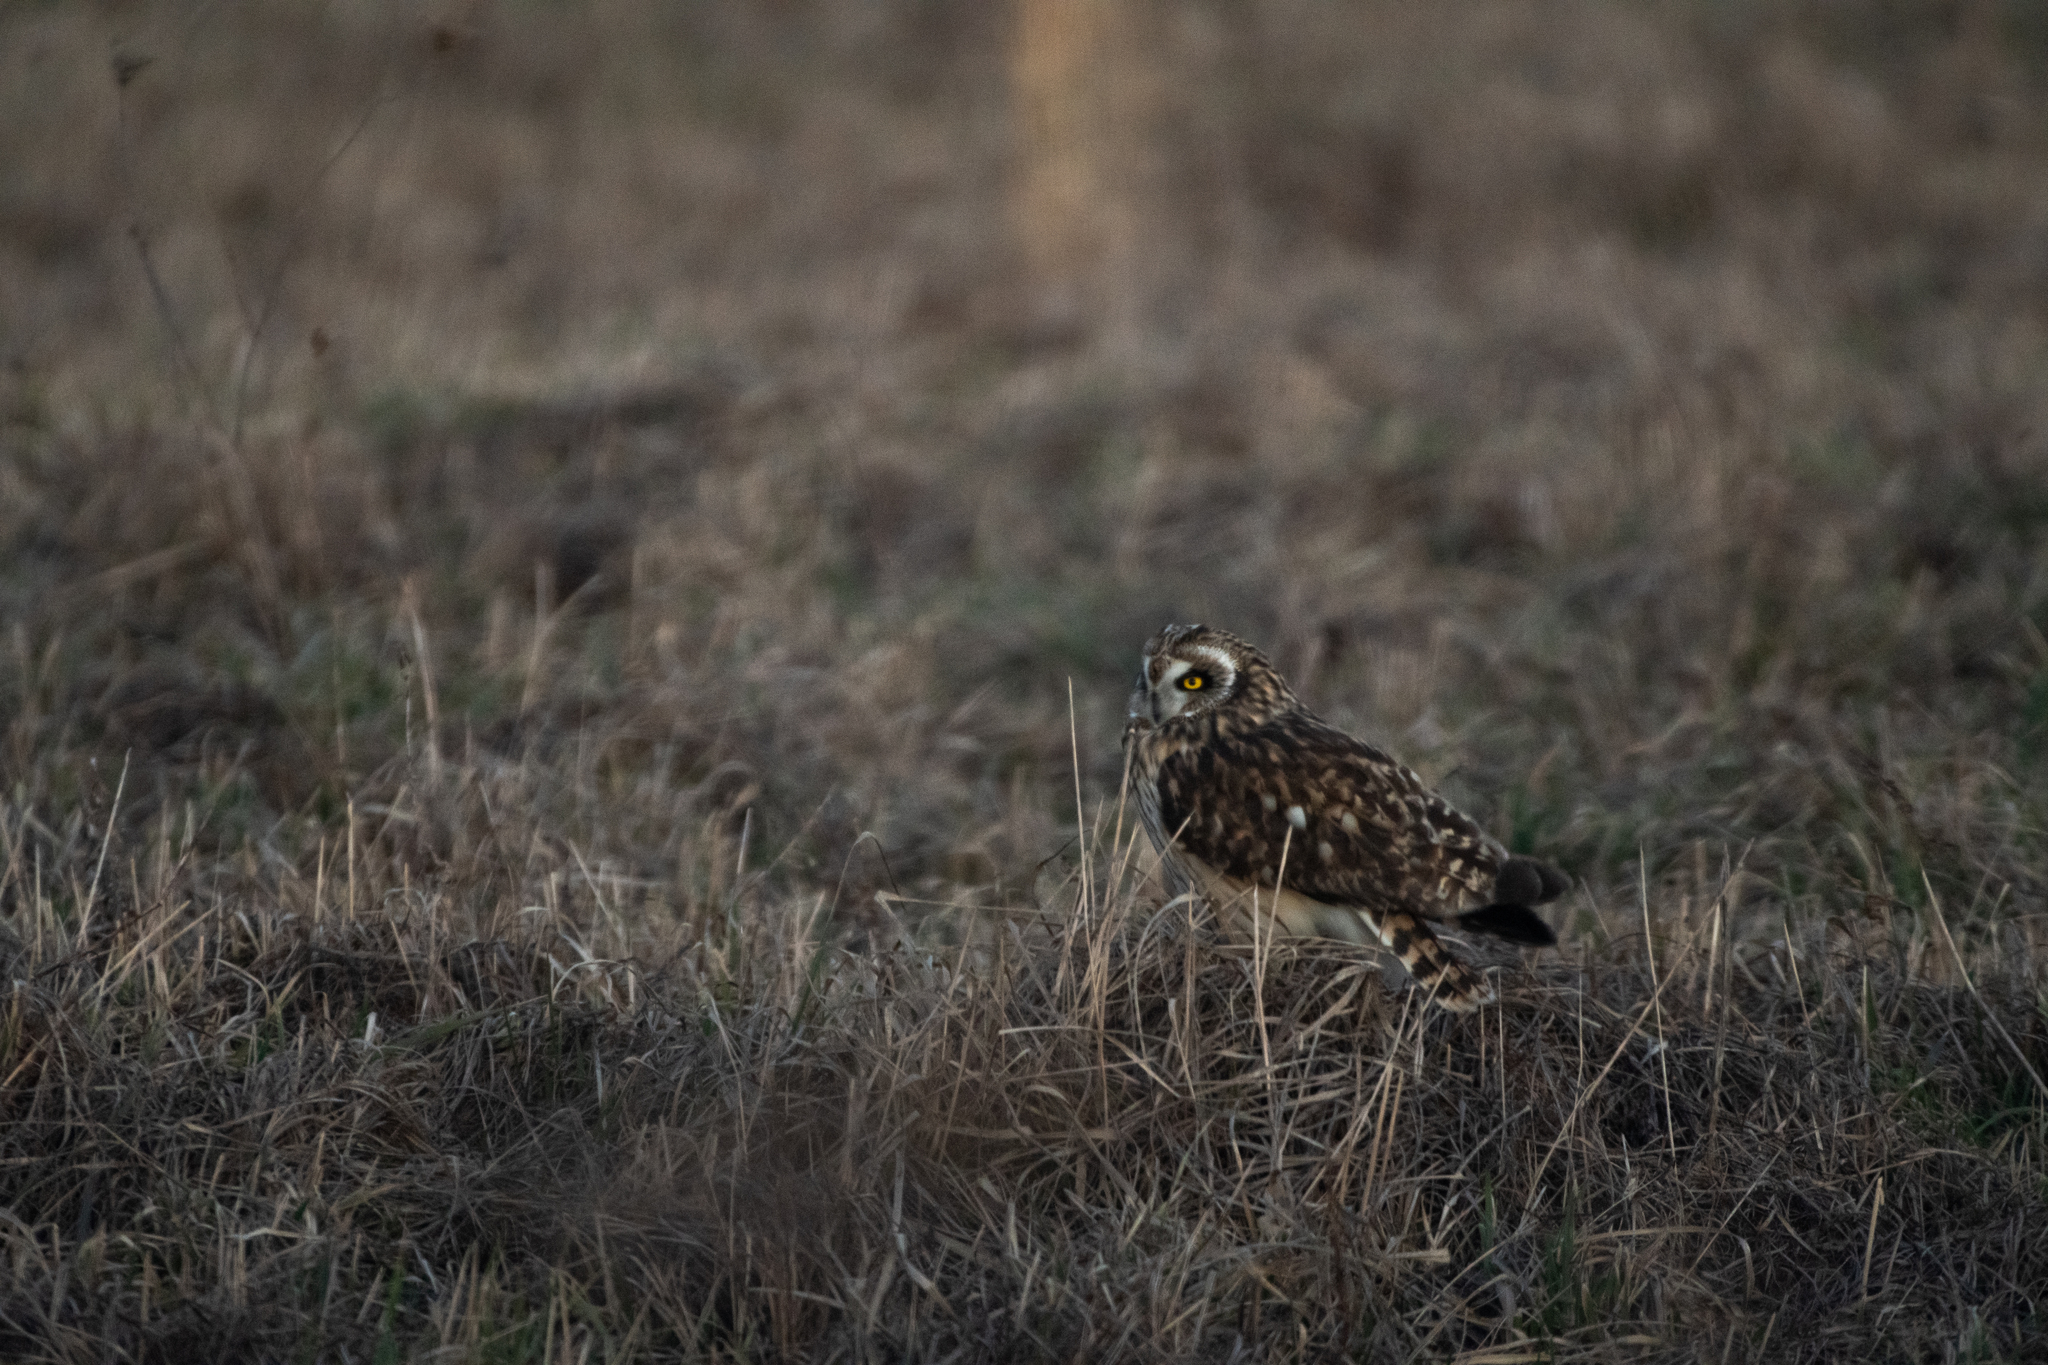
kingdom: Animalia
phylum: Chordata
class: Aves
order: Strigiformes
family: Strigidae
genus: Asio
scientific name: Asio flammeus
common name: Short-eared owl
